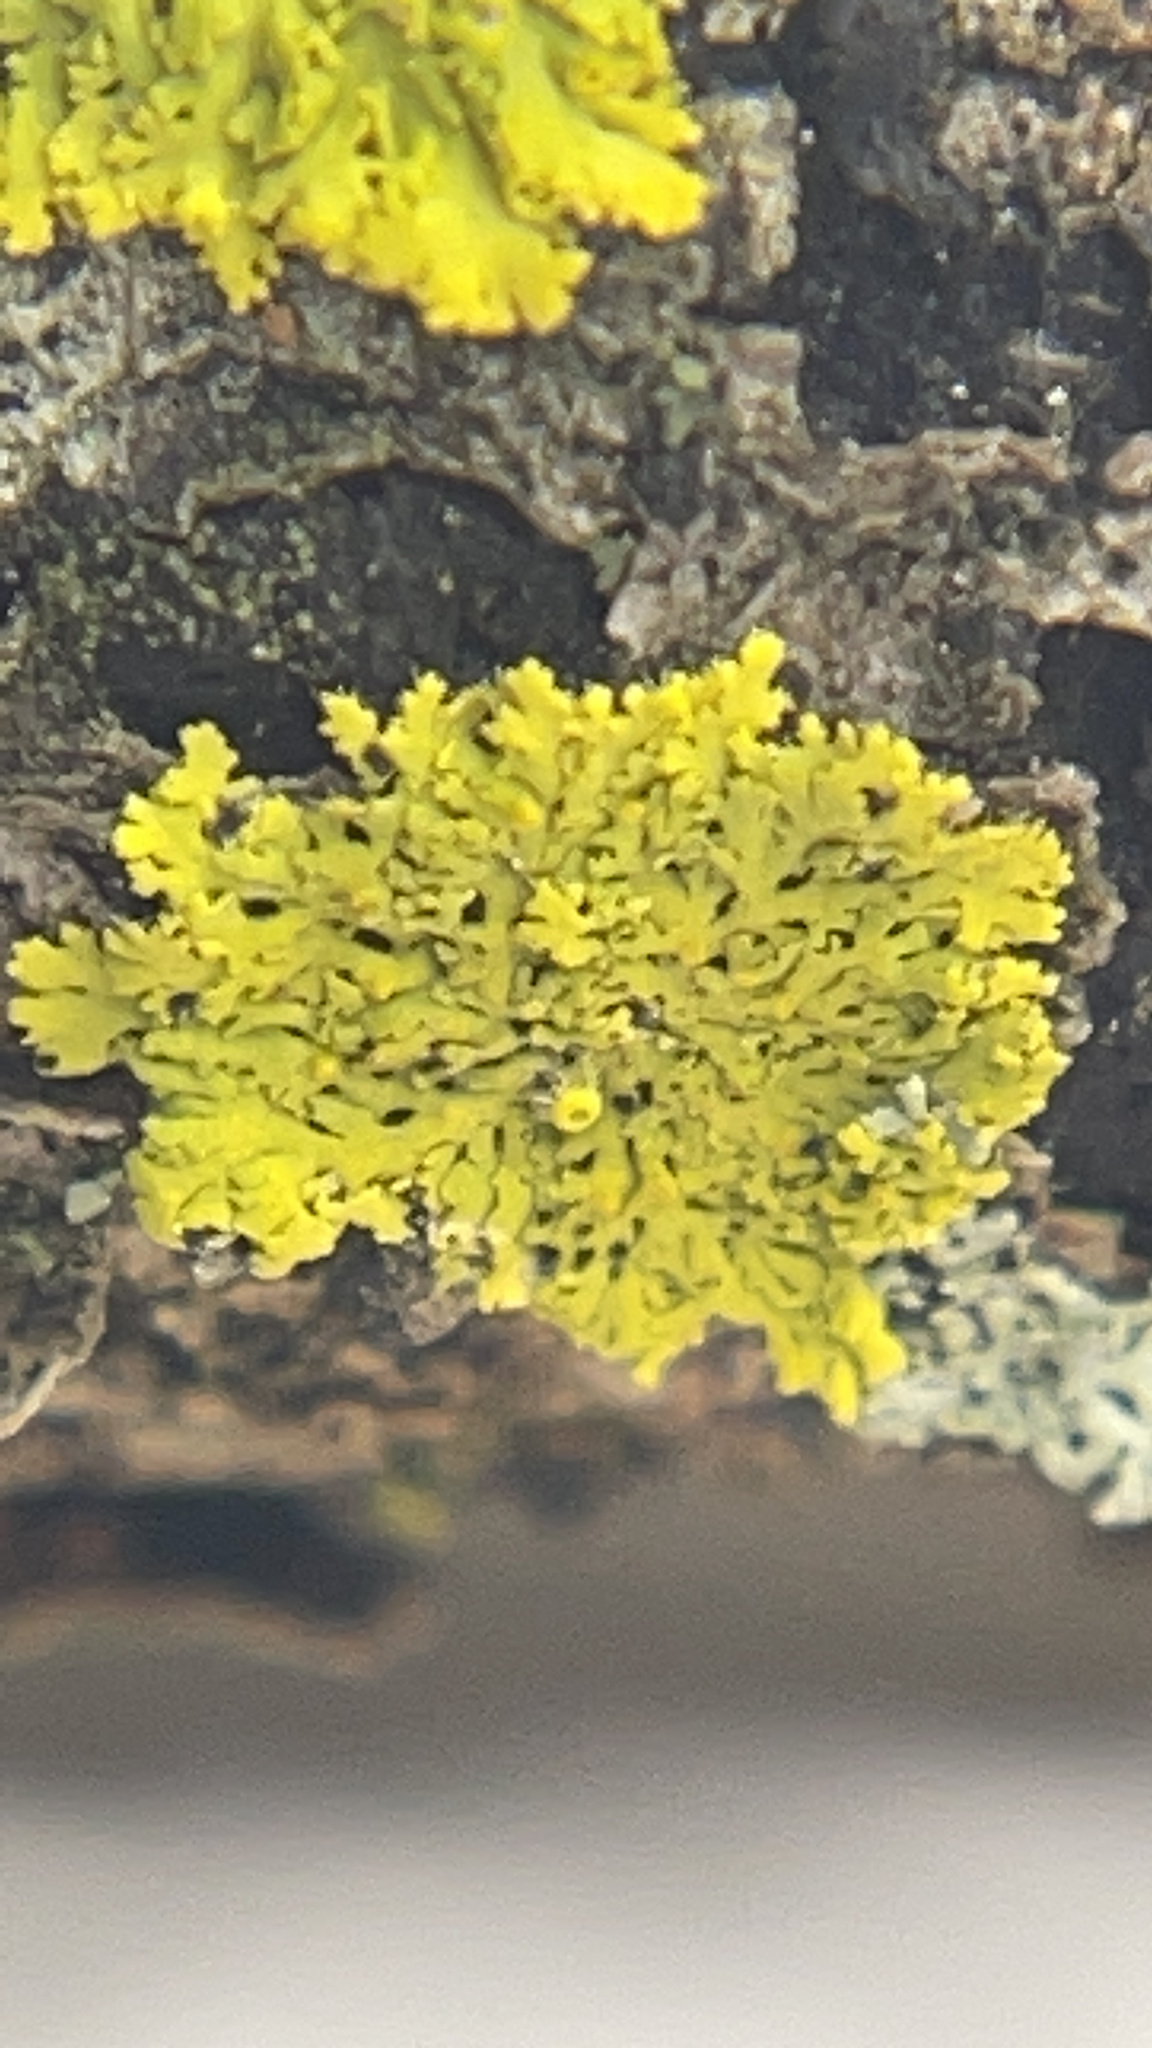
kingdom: Fungi
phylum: Ascomycota
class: Candelariomycetes
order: Candelariales
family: Candelariaceae
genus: Candelaria
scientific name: Candelaria fibrosa
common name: Fringed candleflame lichen
